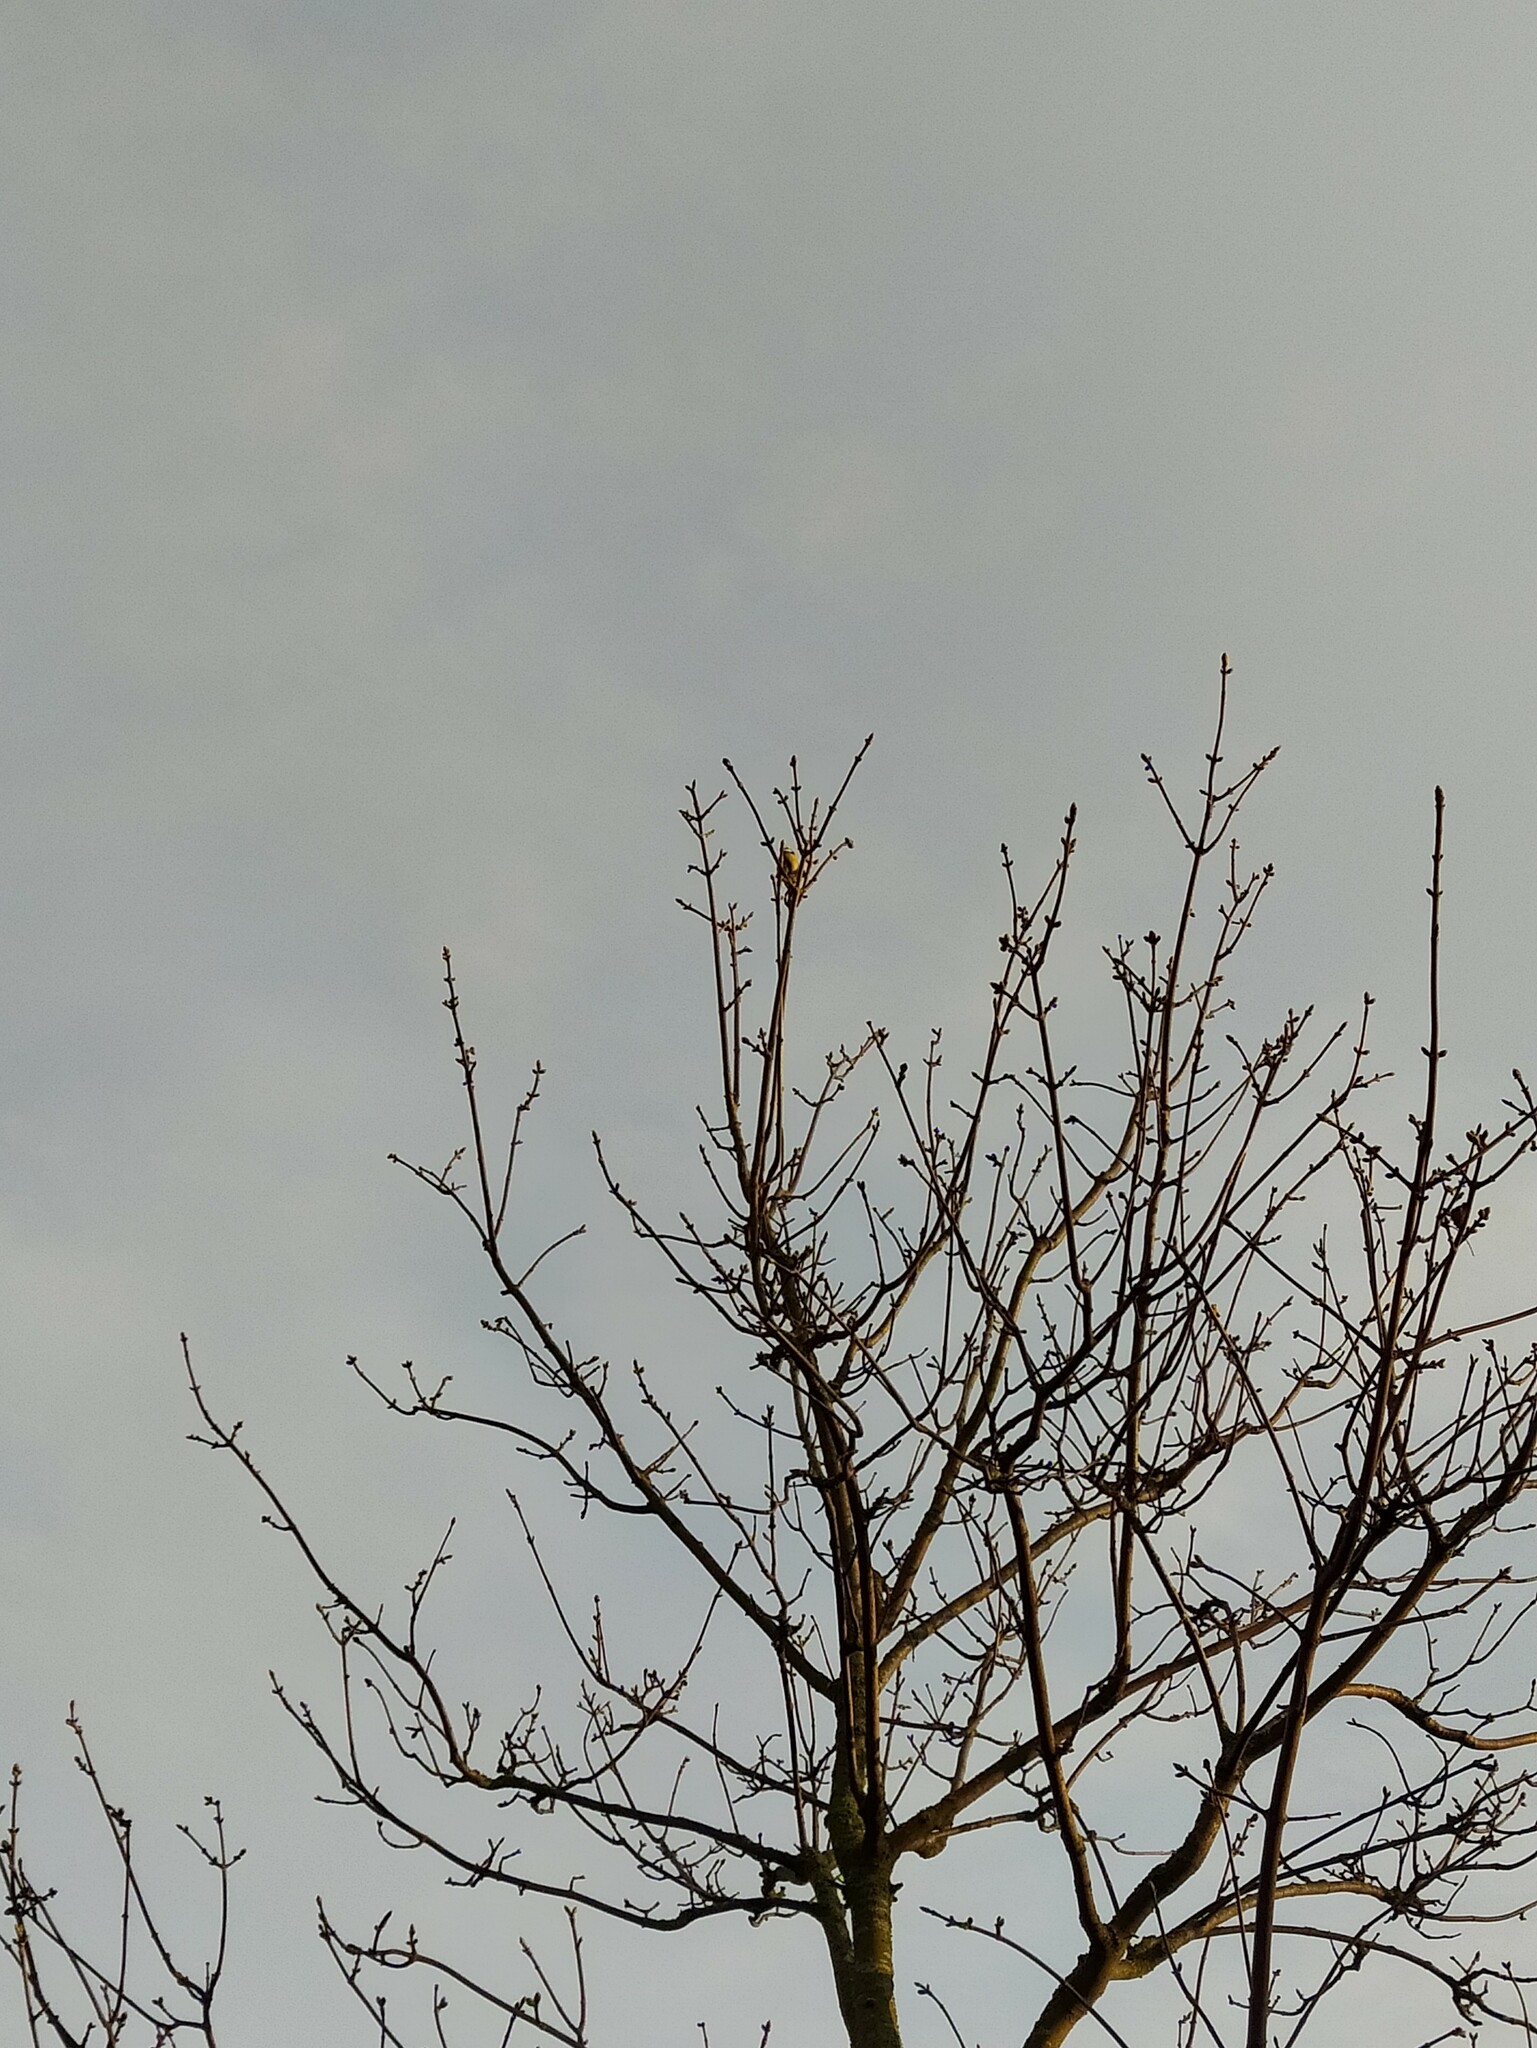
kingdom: Animalia
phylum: Chordata
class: Aves
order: Passeriformes
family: Paridae
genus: Cyanistes
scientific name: Cyanistes caeruleus
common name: Eurasian blue tit
